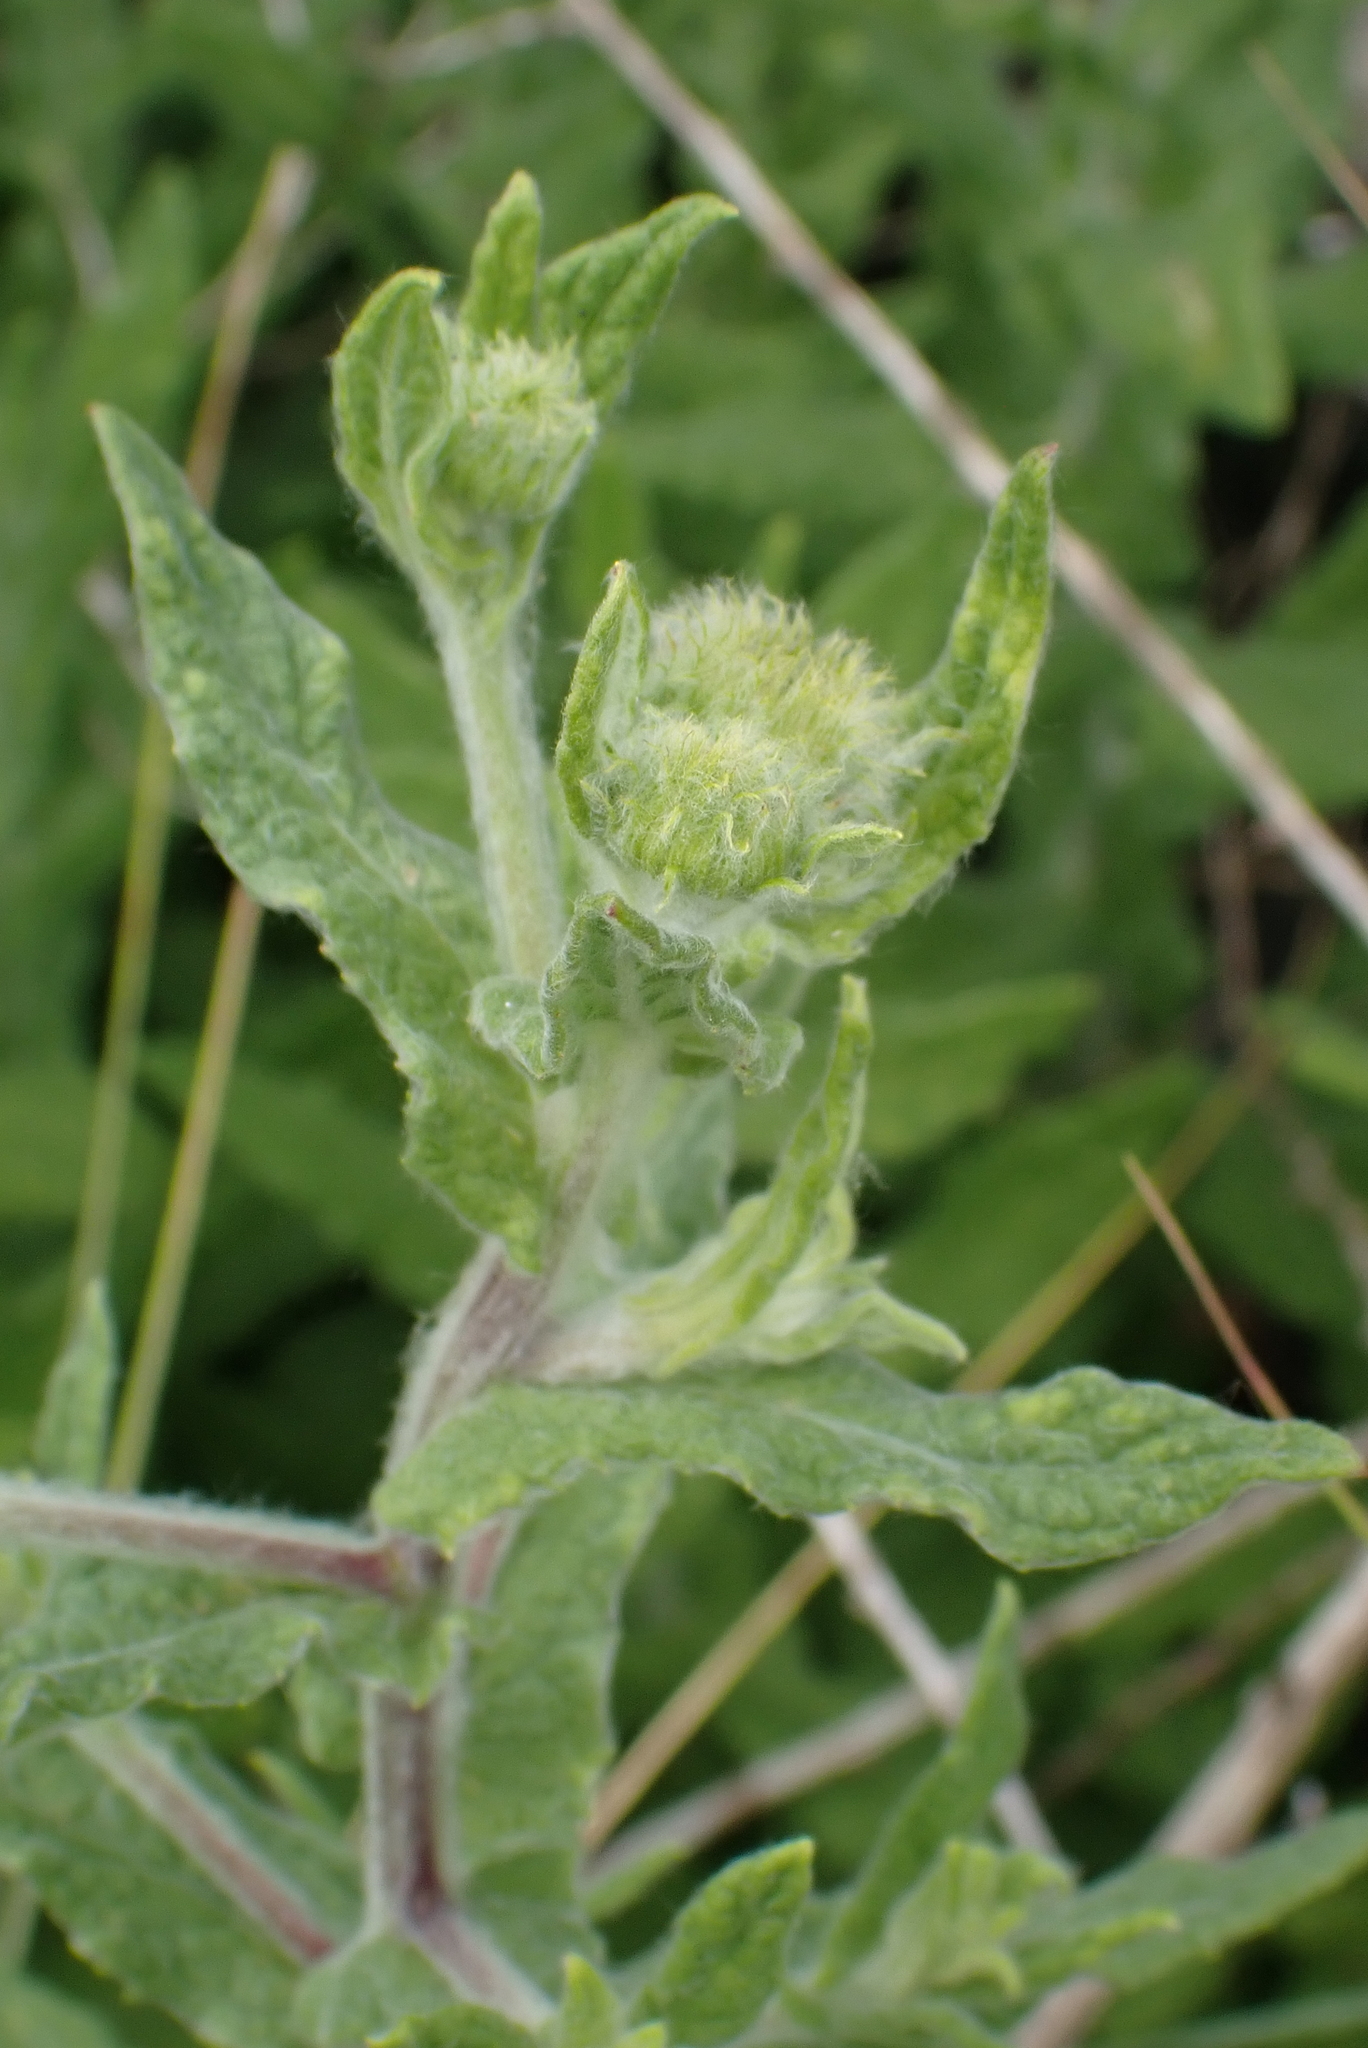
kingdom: Plantae
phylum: Tracheophyta
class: Magnoliopsida
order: Asterales
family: Asteraceae
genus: Pulicaria
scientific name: Pulicaria dysenterica
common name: Common fleabane
